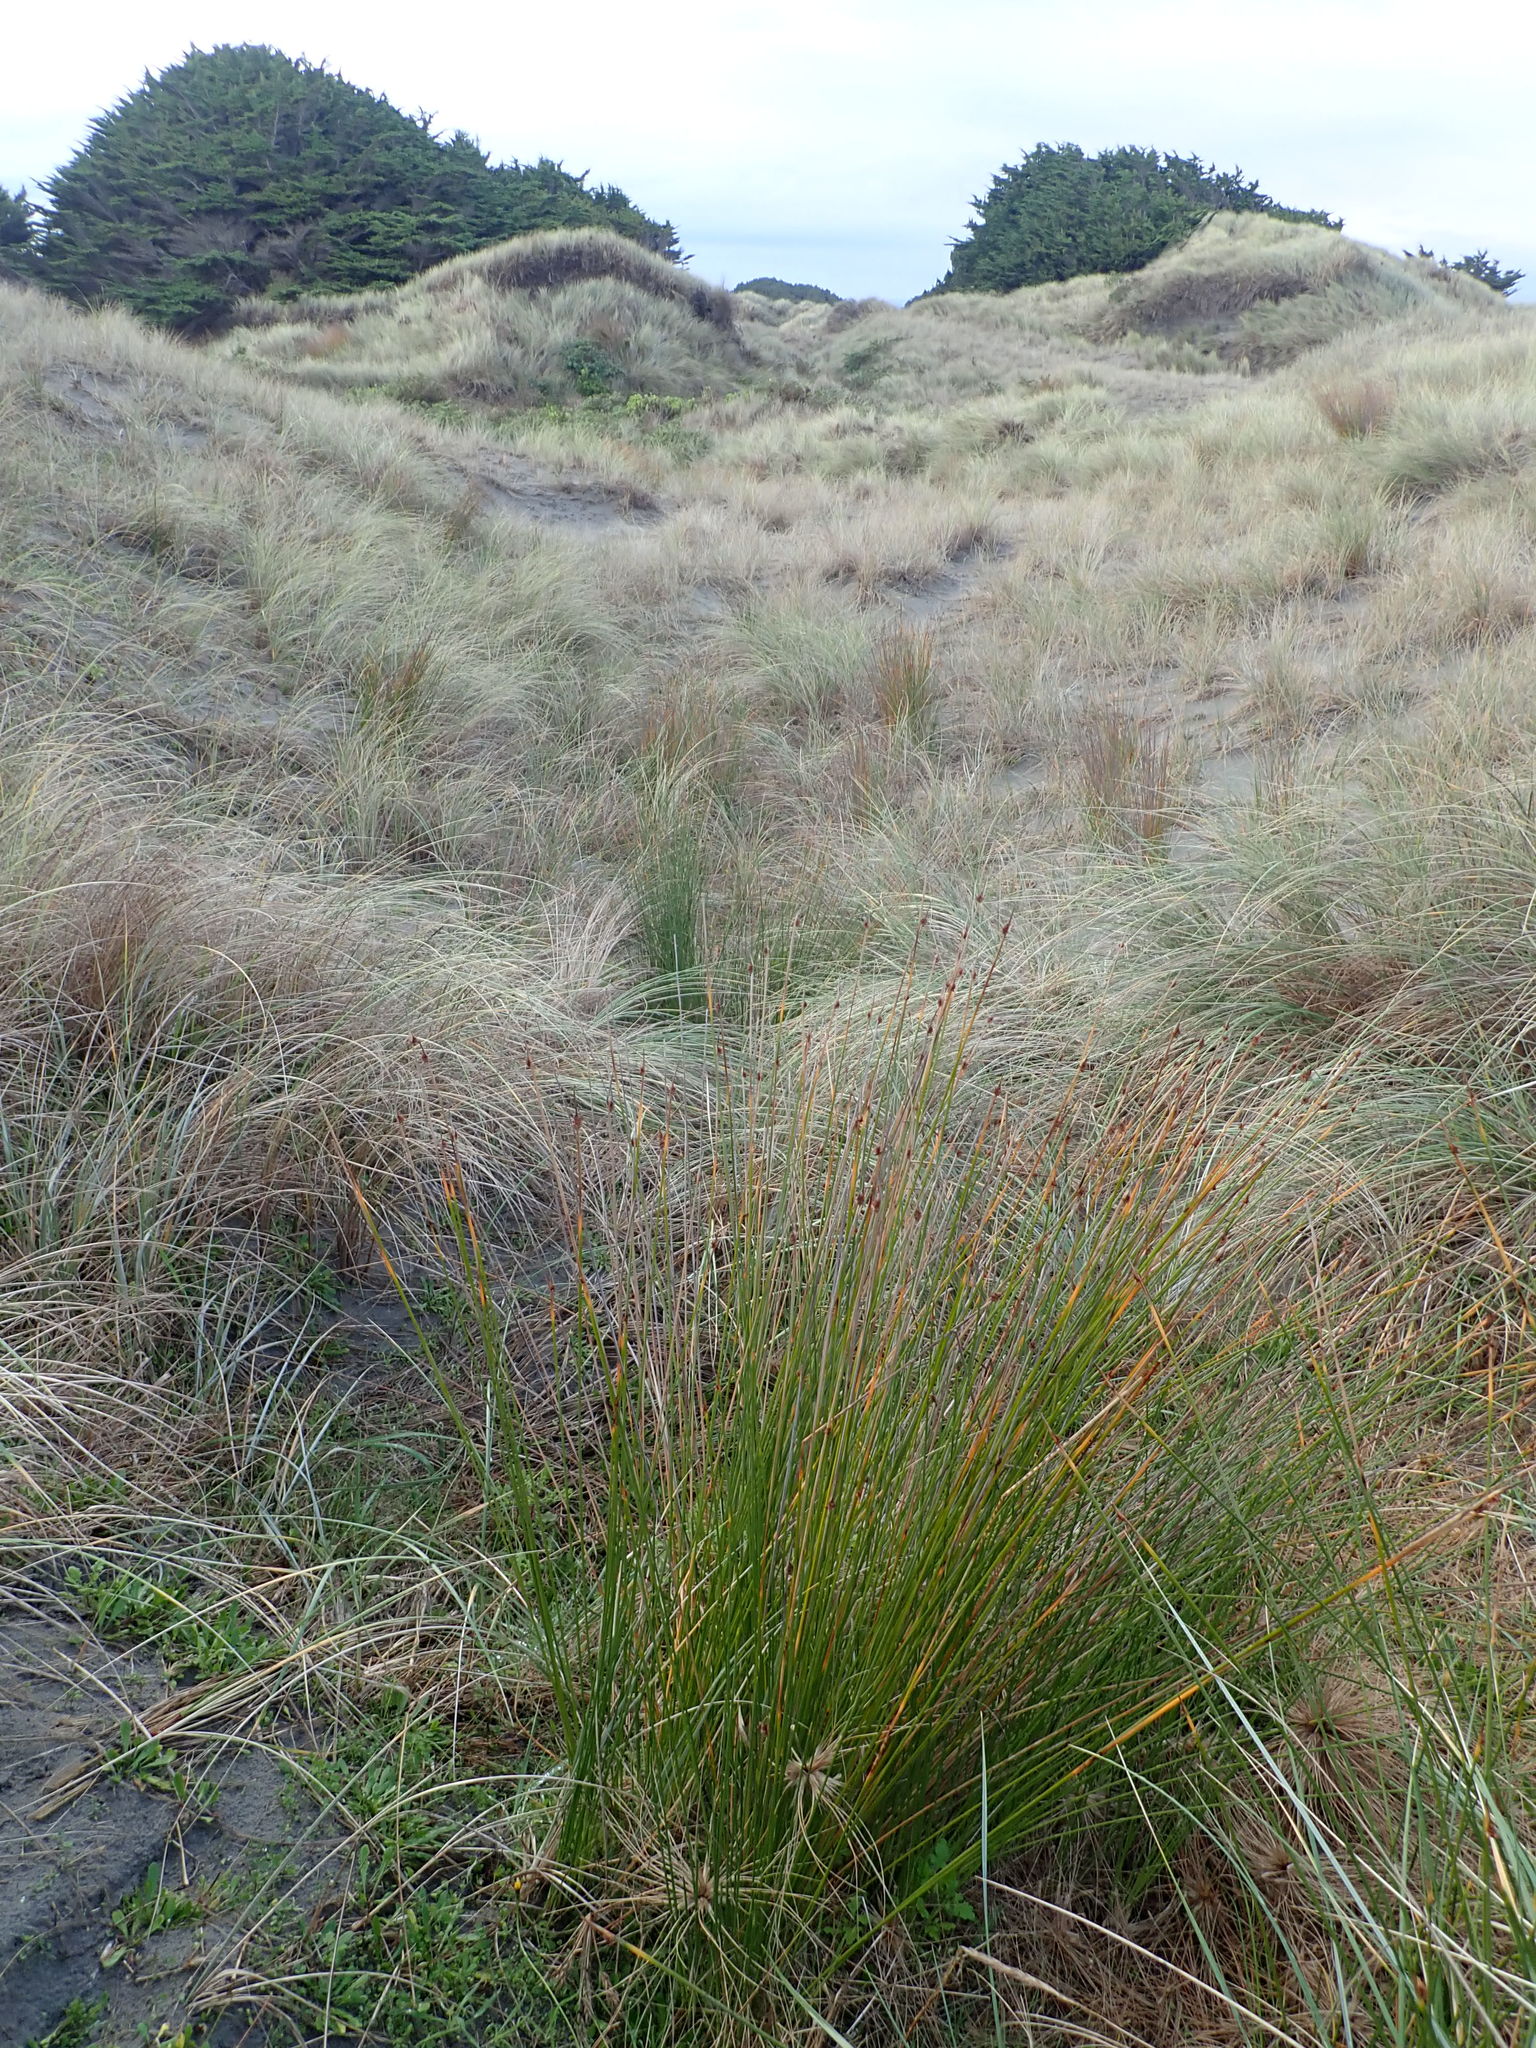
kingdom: Plantae
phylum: Tracheophyta
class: Liliopsida
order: Poales
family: Cyperaceae
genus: Ficinia
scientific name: Ficinia nodosa
